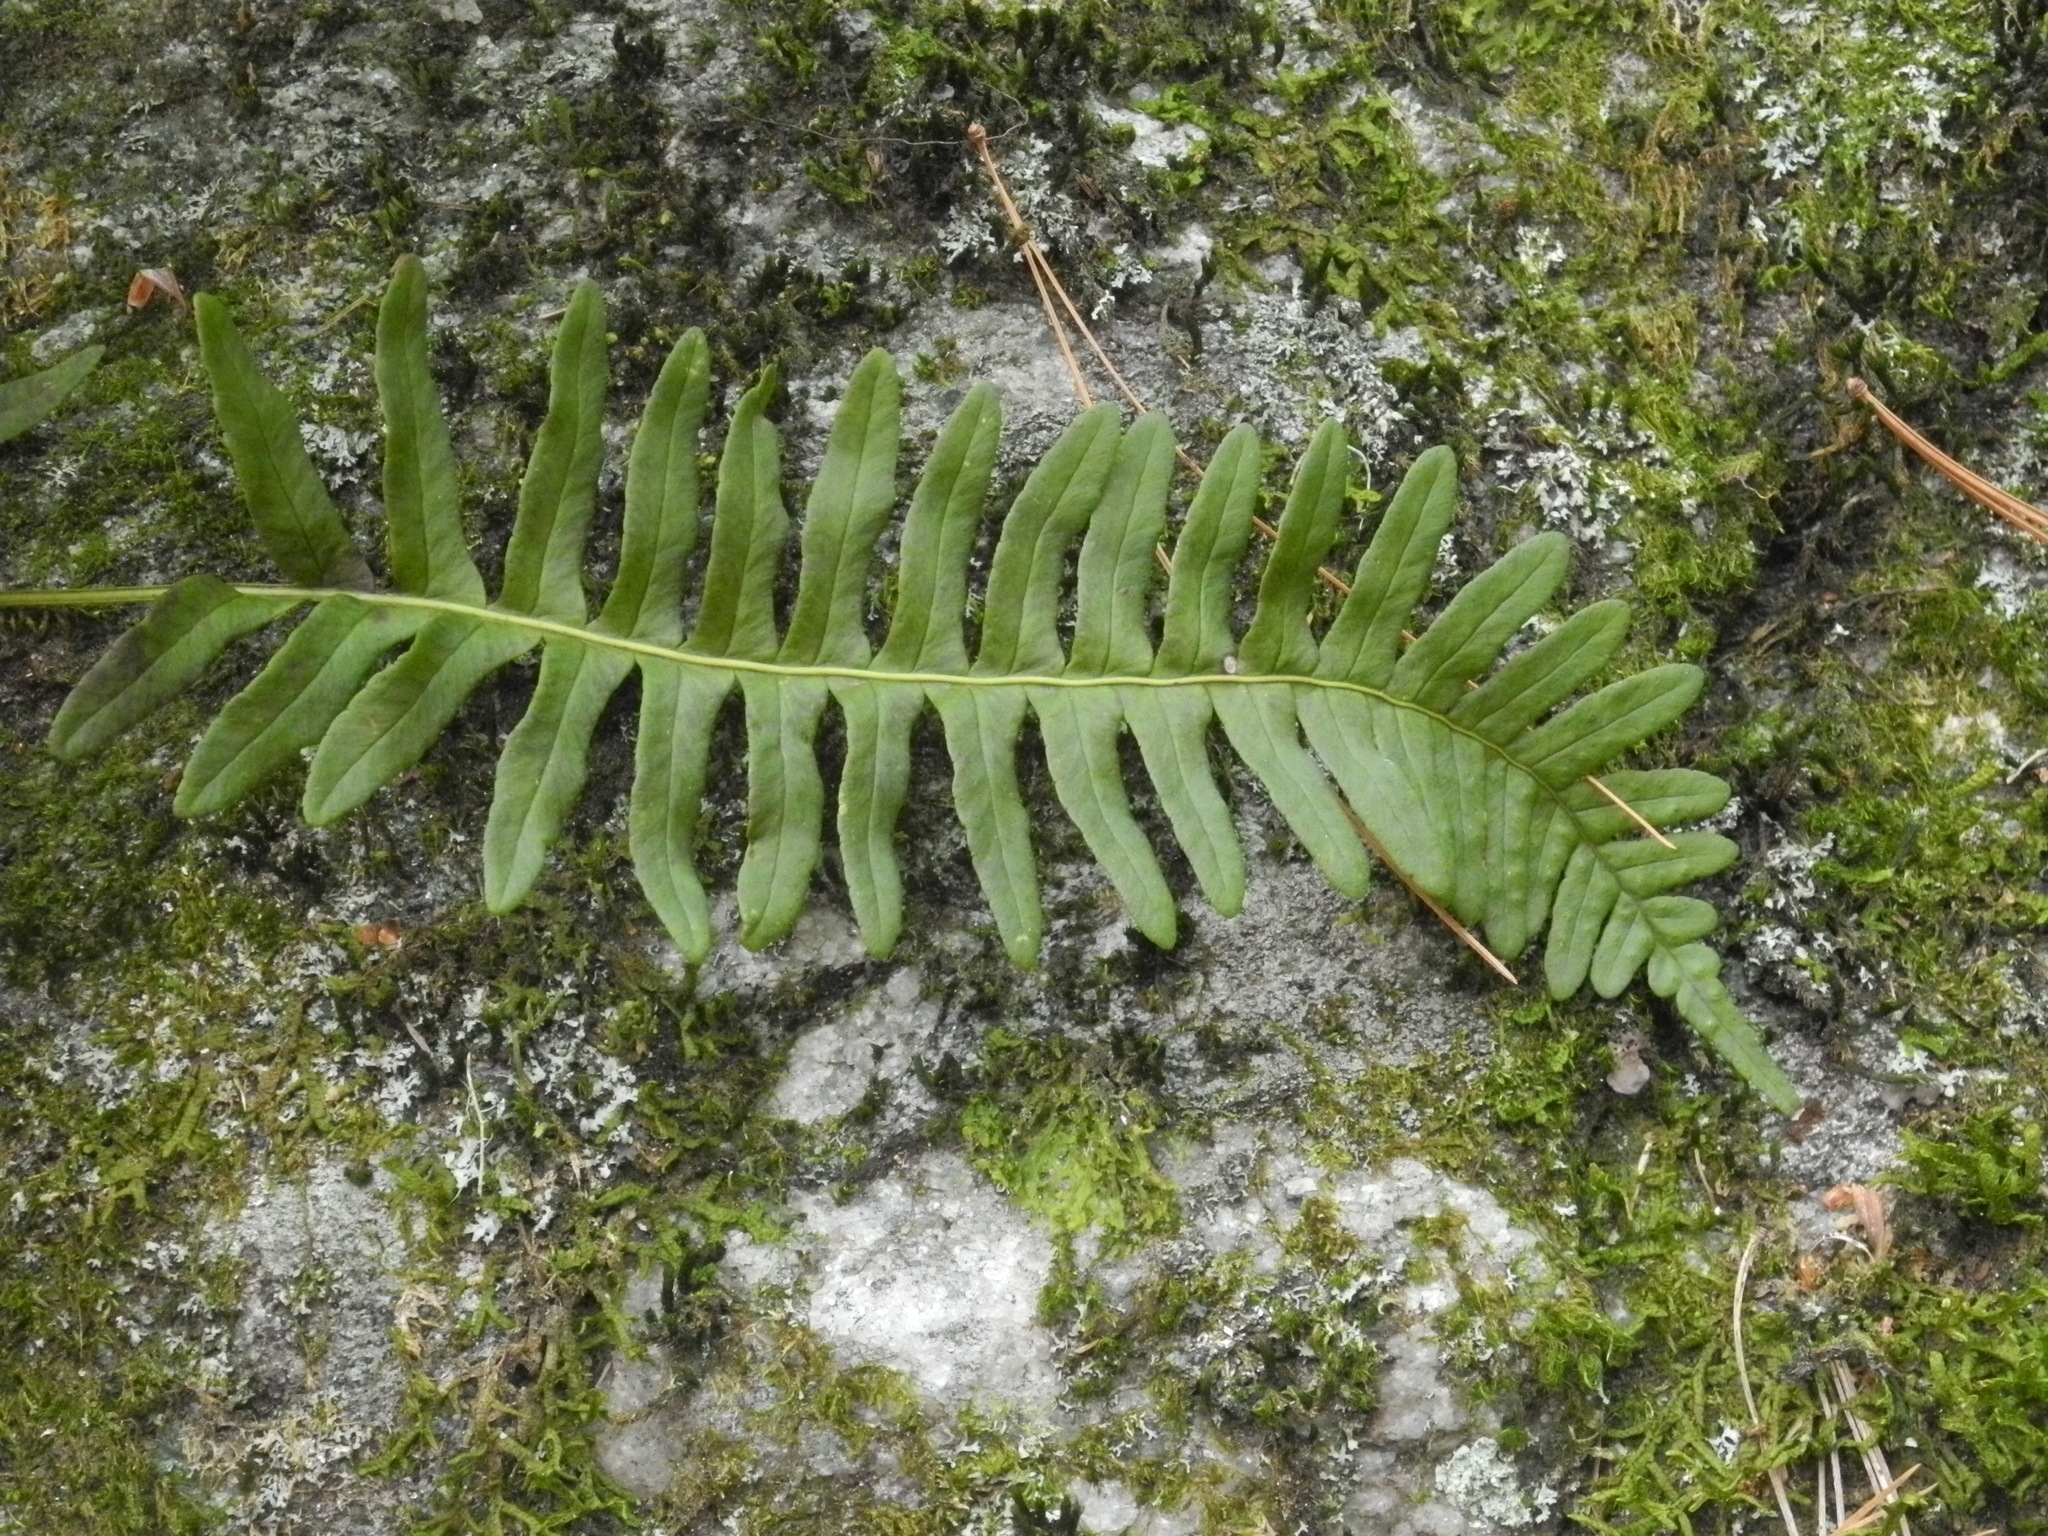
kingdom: Plantae
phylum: Tracheophyta
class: Polypodiopsida
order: Polypodiales
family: Polypodiaceae
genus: Polypodium
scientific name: Polypodium virginianum
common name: American wall fern
